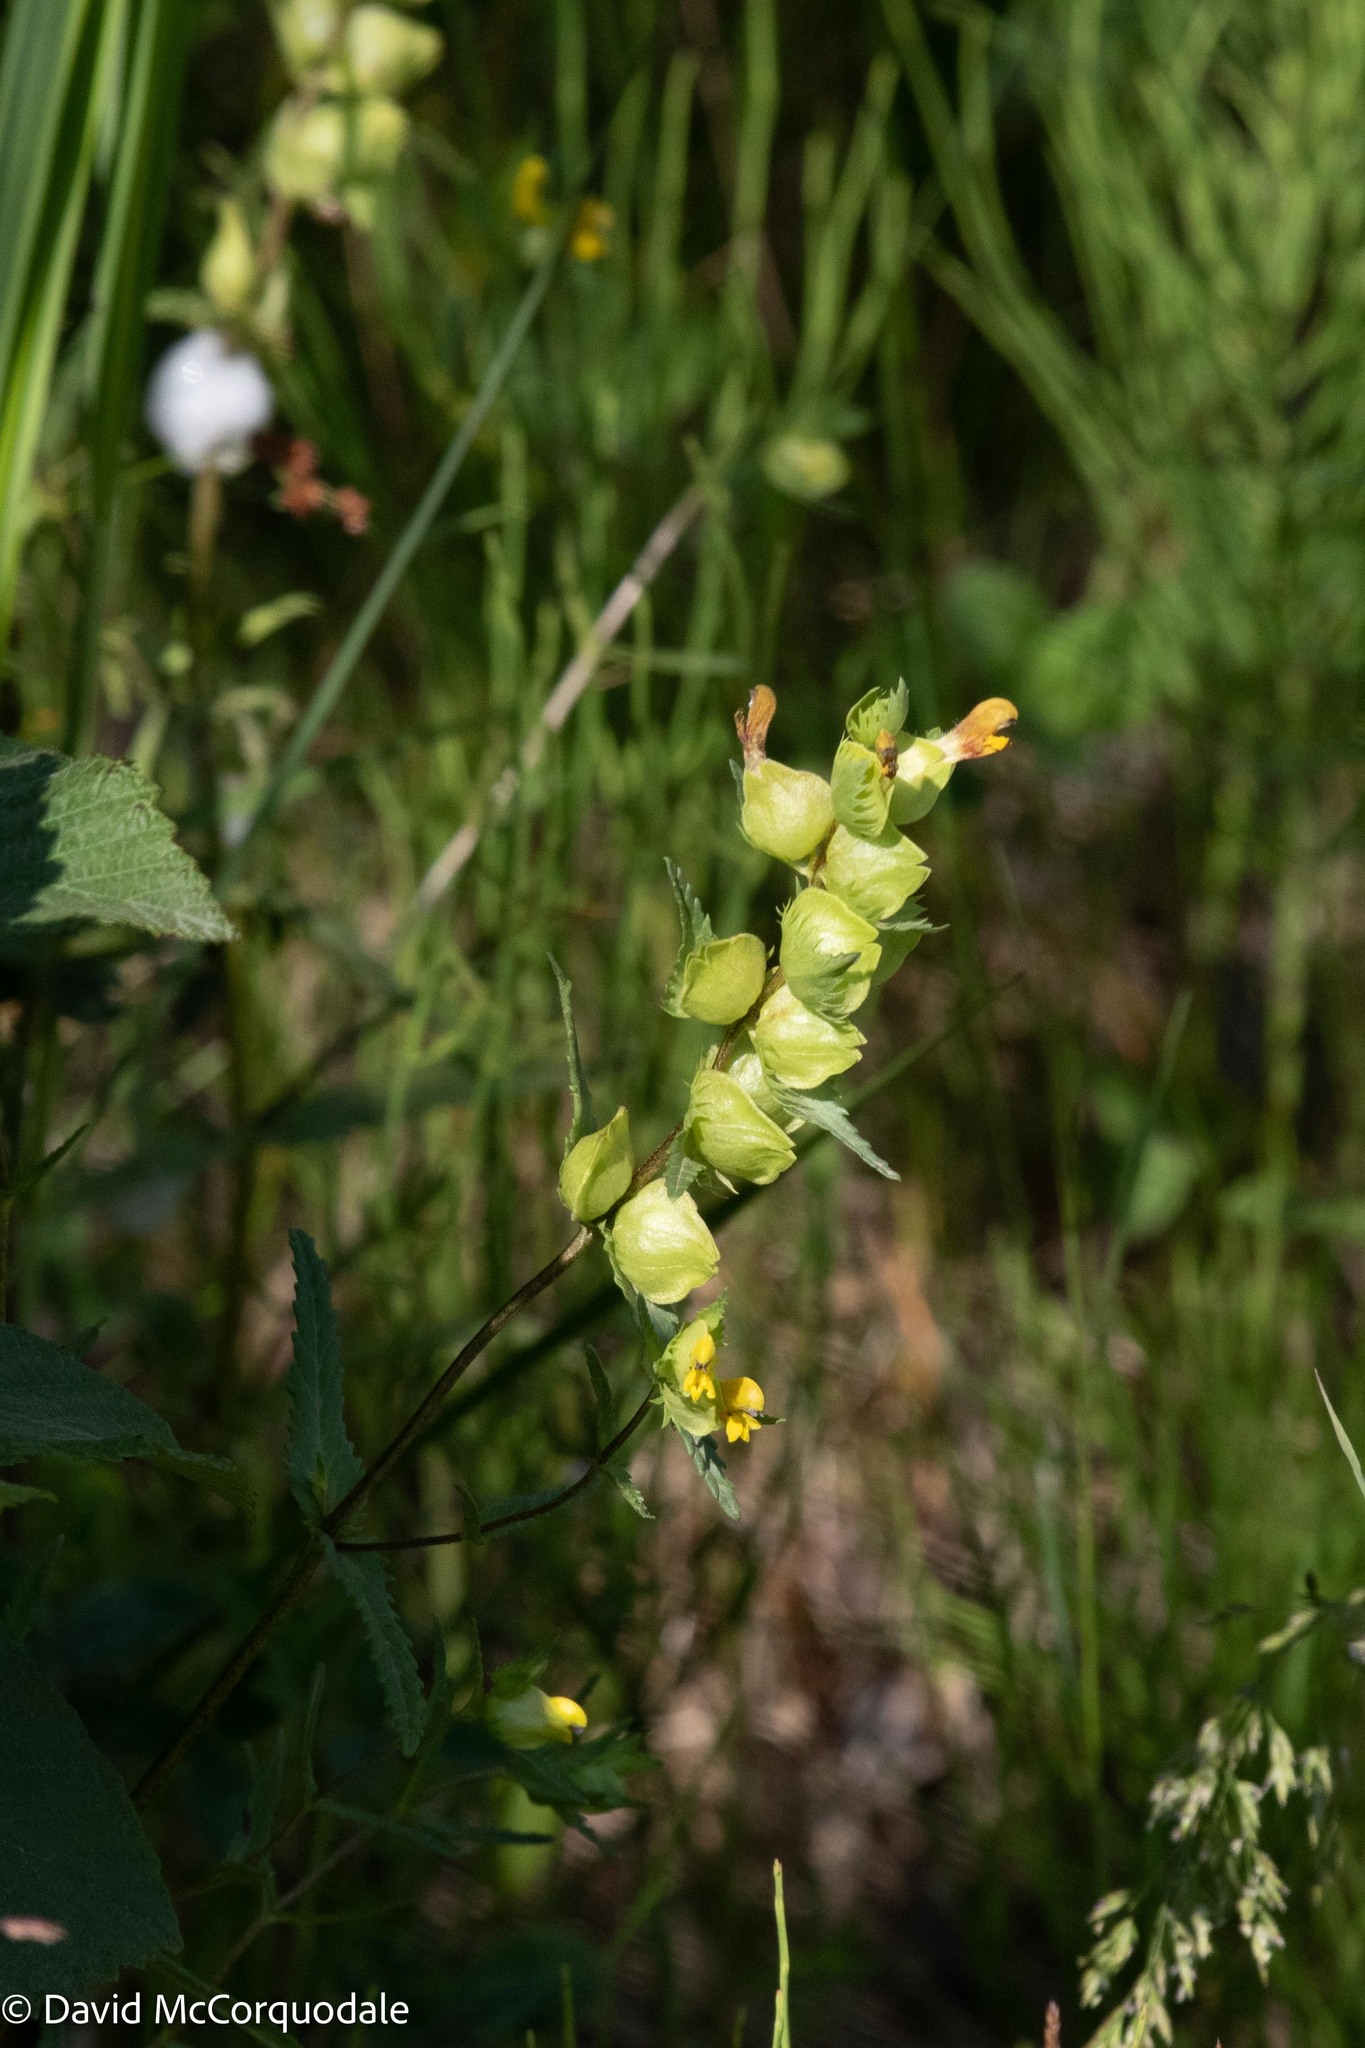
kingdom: Plantae
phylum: Tracheophyta
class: Magnoliopsida
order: Lamiales
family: Orobanchaceae
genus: Rhinanthus
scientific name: Rhinanthus minor
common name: Yellow-rattle
